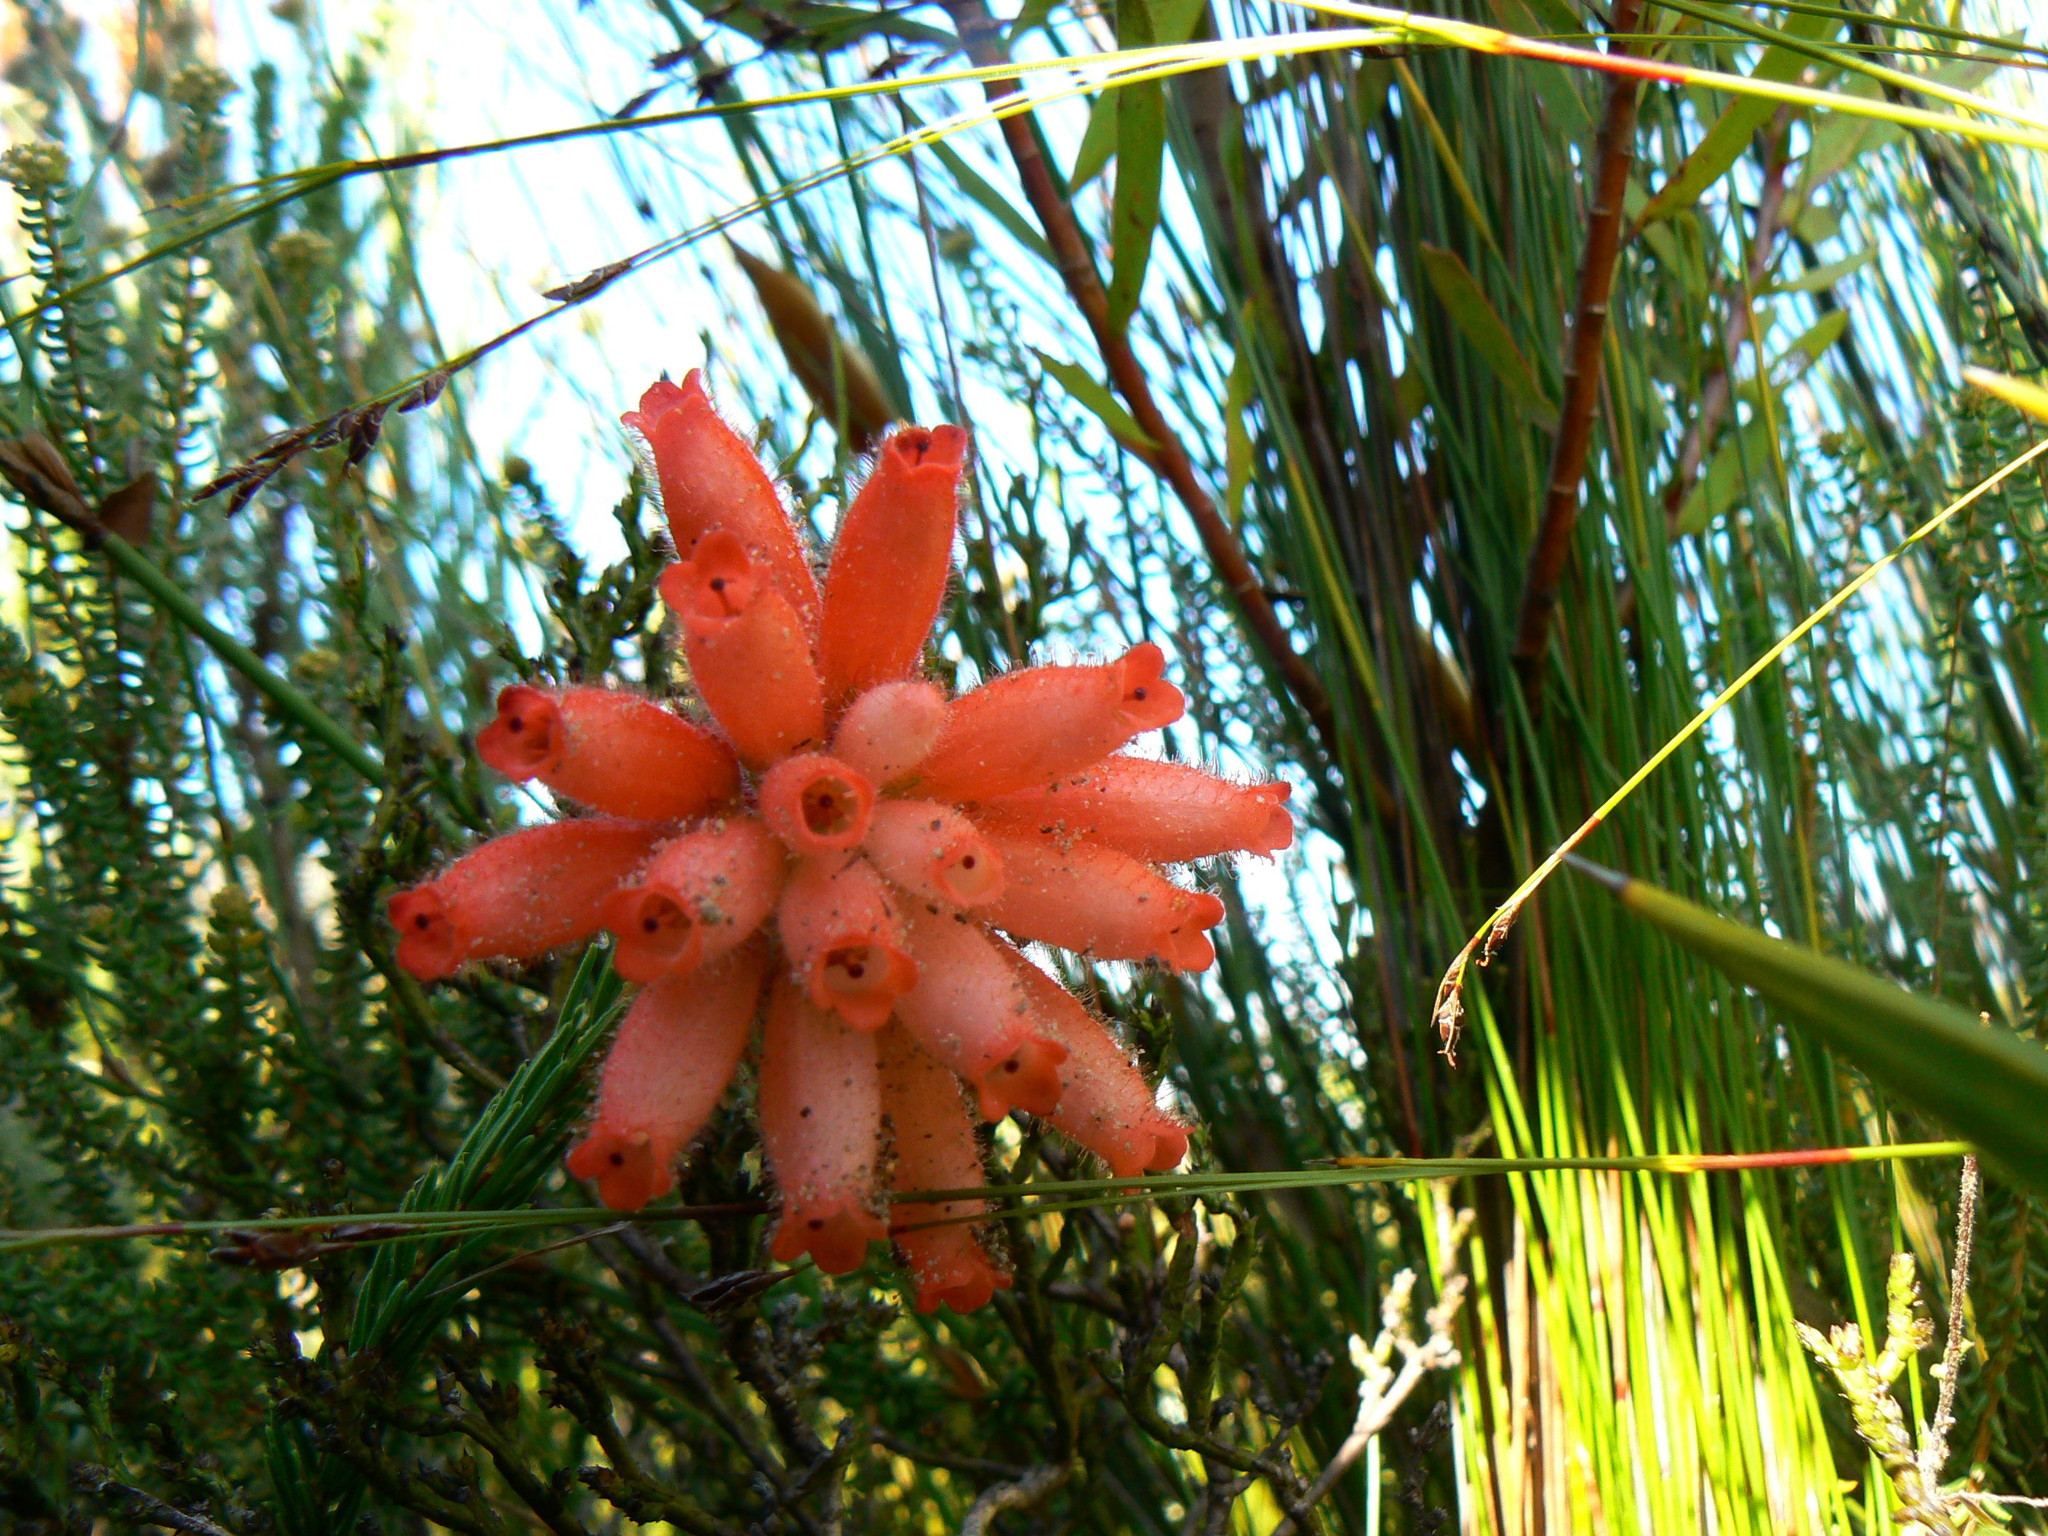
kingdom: Plantae
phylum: Tracheophyta
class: Magnoliopsida
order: Ericales
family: Ericaceae
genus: Erica
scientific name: Erica cerinthoides
